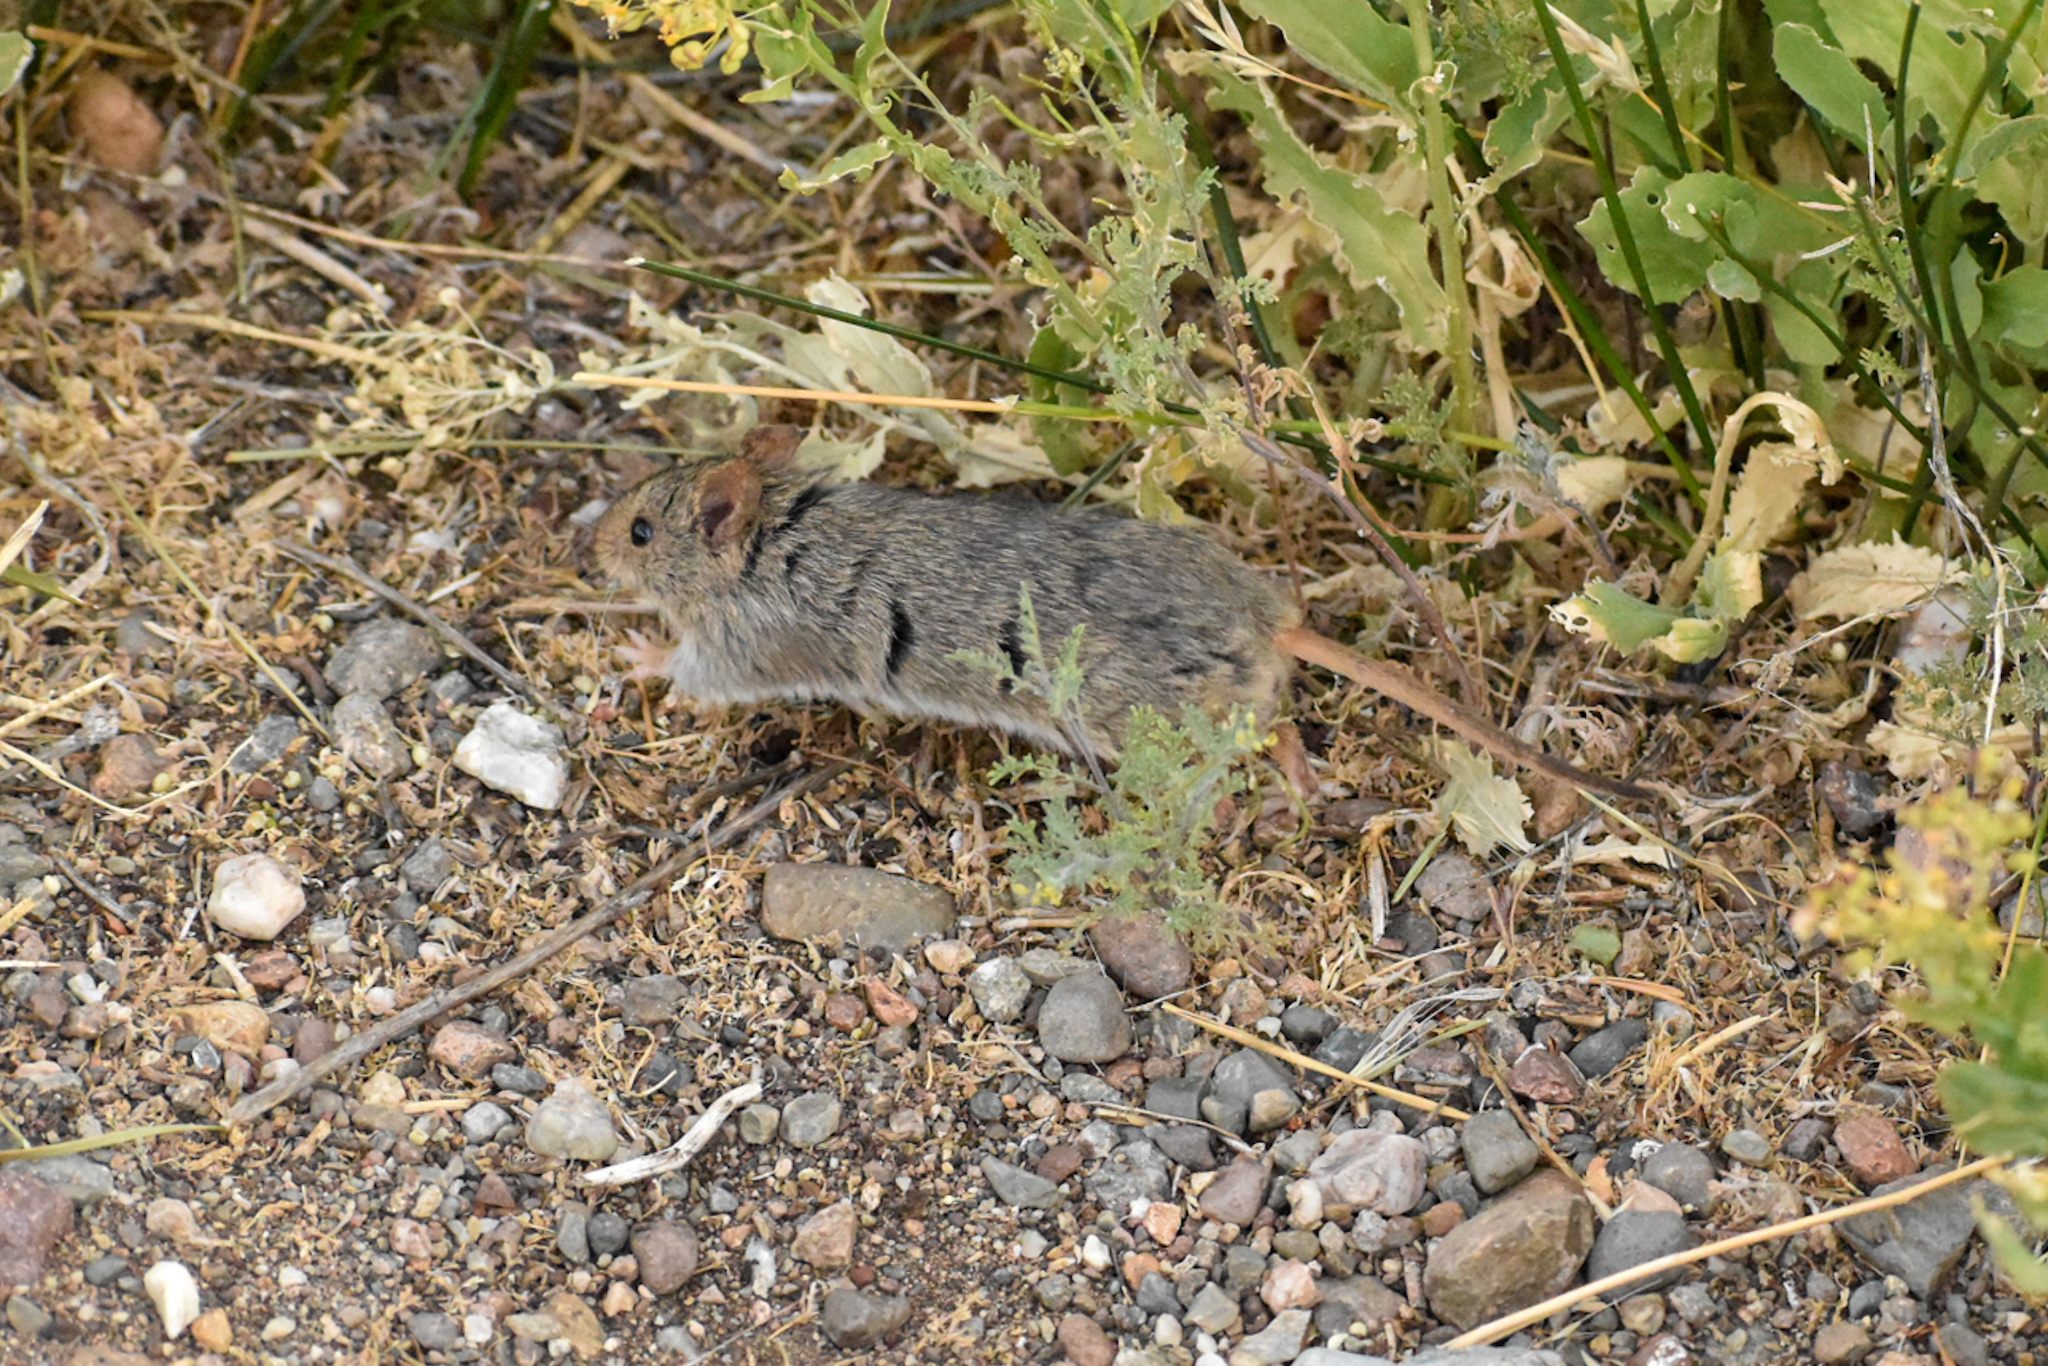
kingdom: Animalia
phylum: Chordata
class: Mammalia
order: Rodentia
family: Cricetidae
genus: Abrothrix
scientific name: Abrothrix olivaceus
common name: Olive-colored akodont
